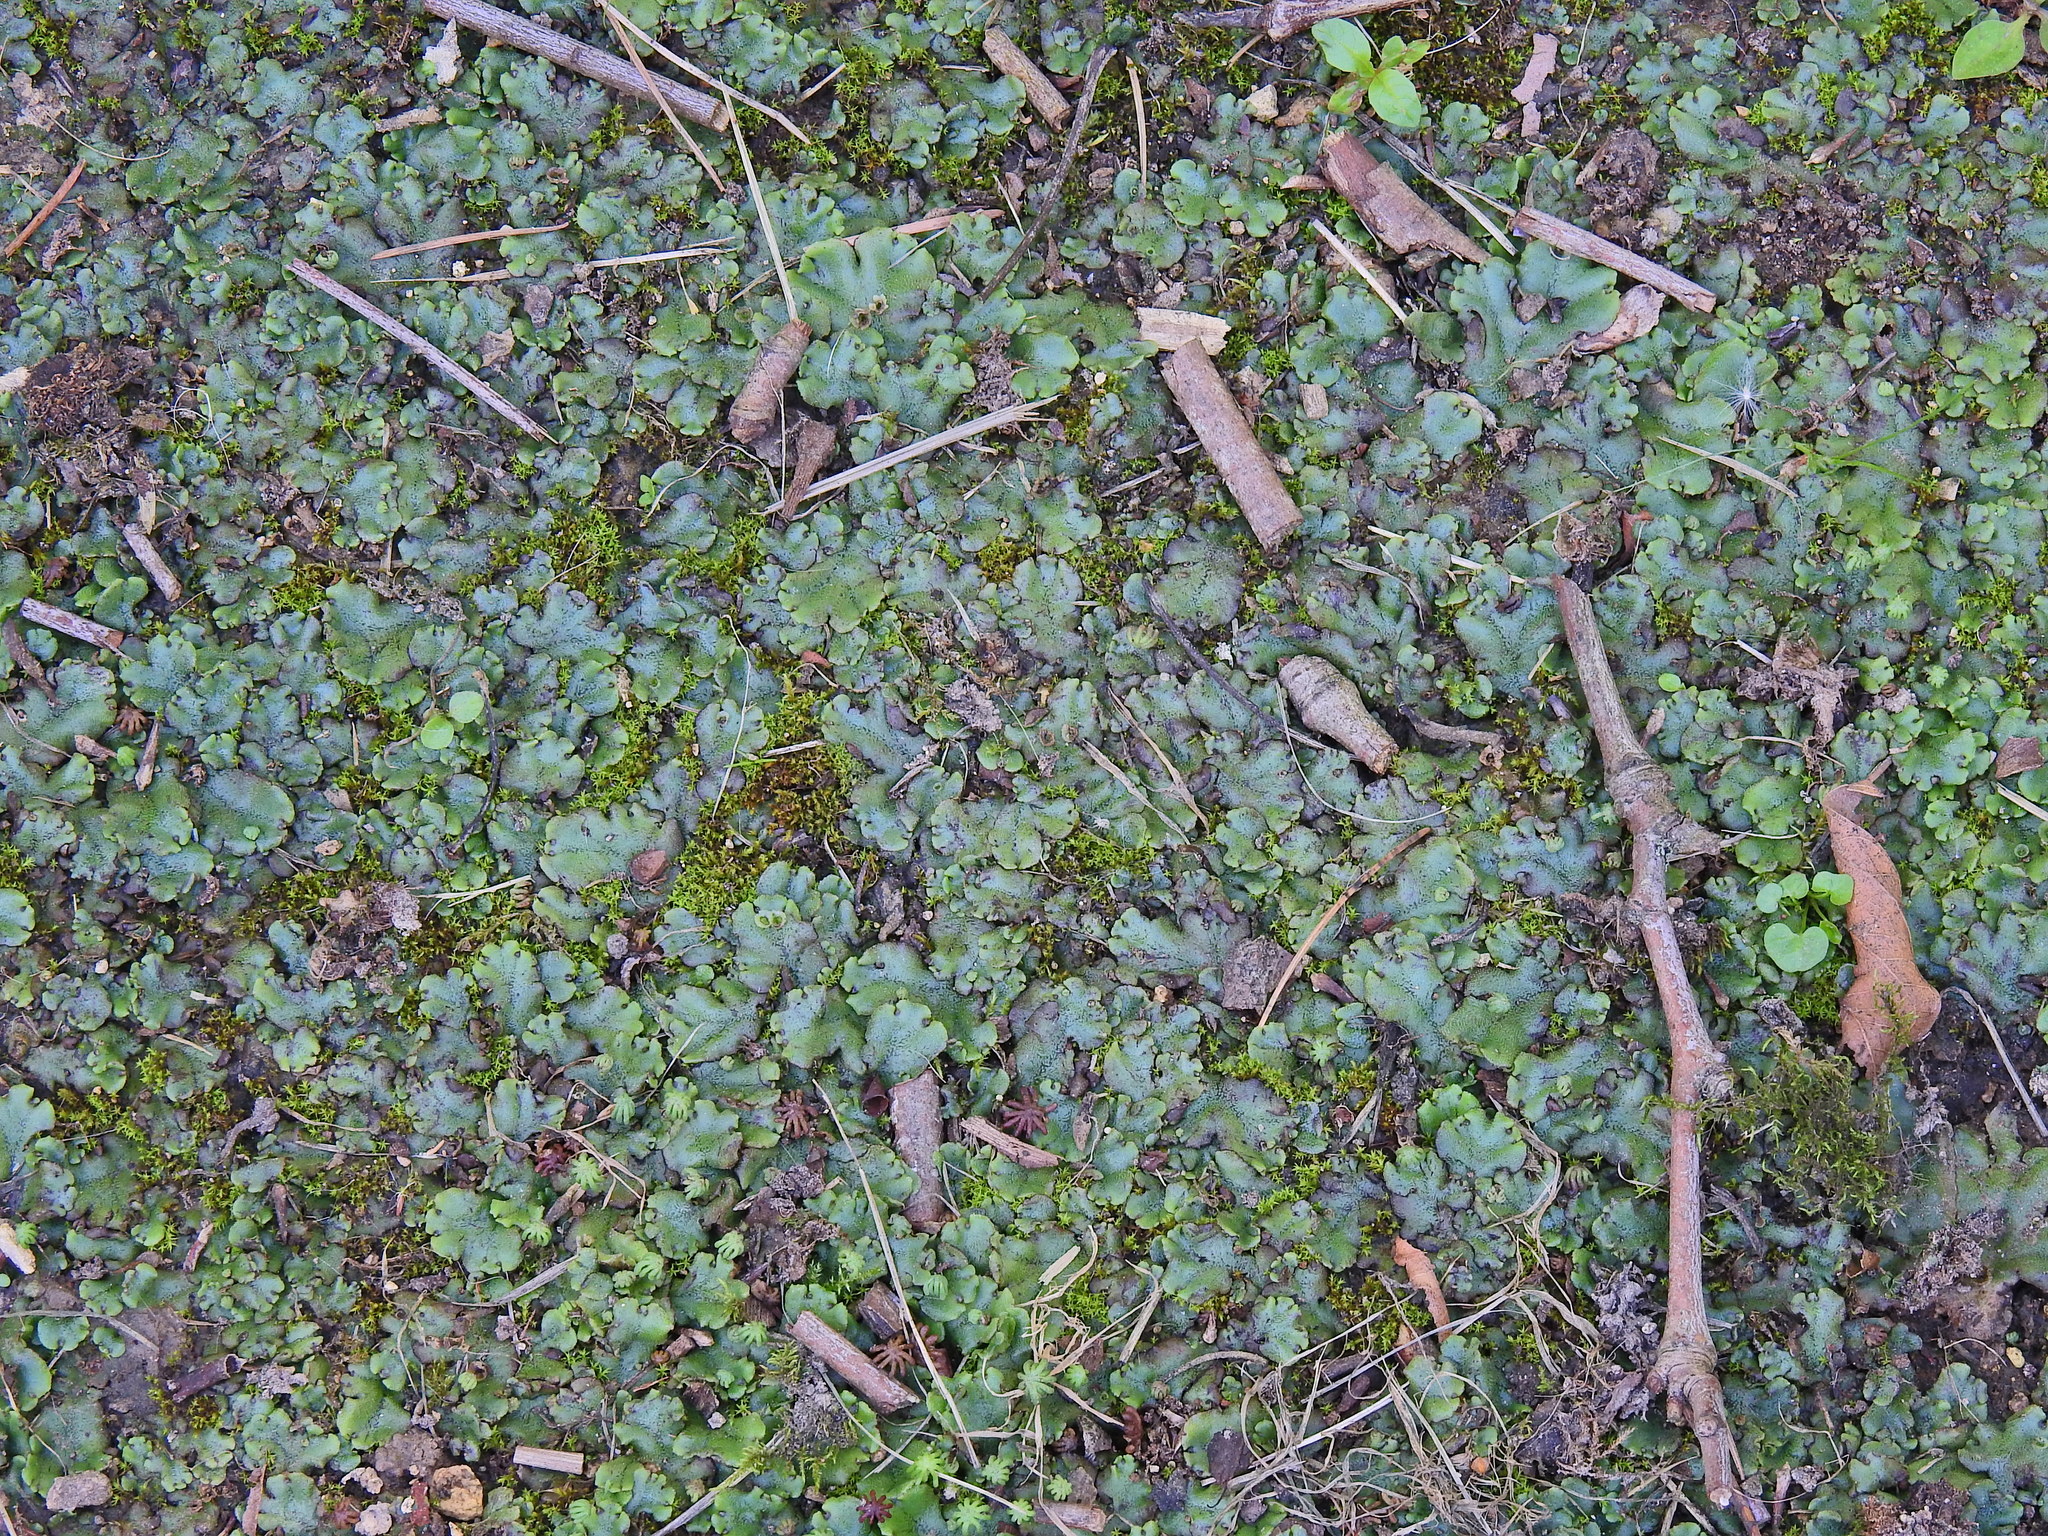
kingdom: Plantae
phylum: Marchantiophyta
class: Marchantiopsida
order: Marchantiales
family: Marchantiaceae
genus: Marchantia
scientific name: Marchantia polymorpha
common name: Common liverwort
